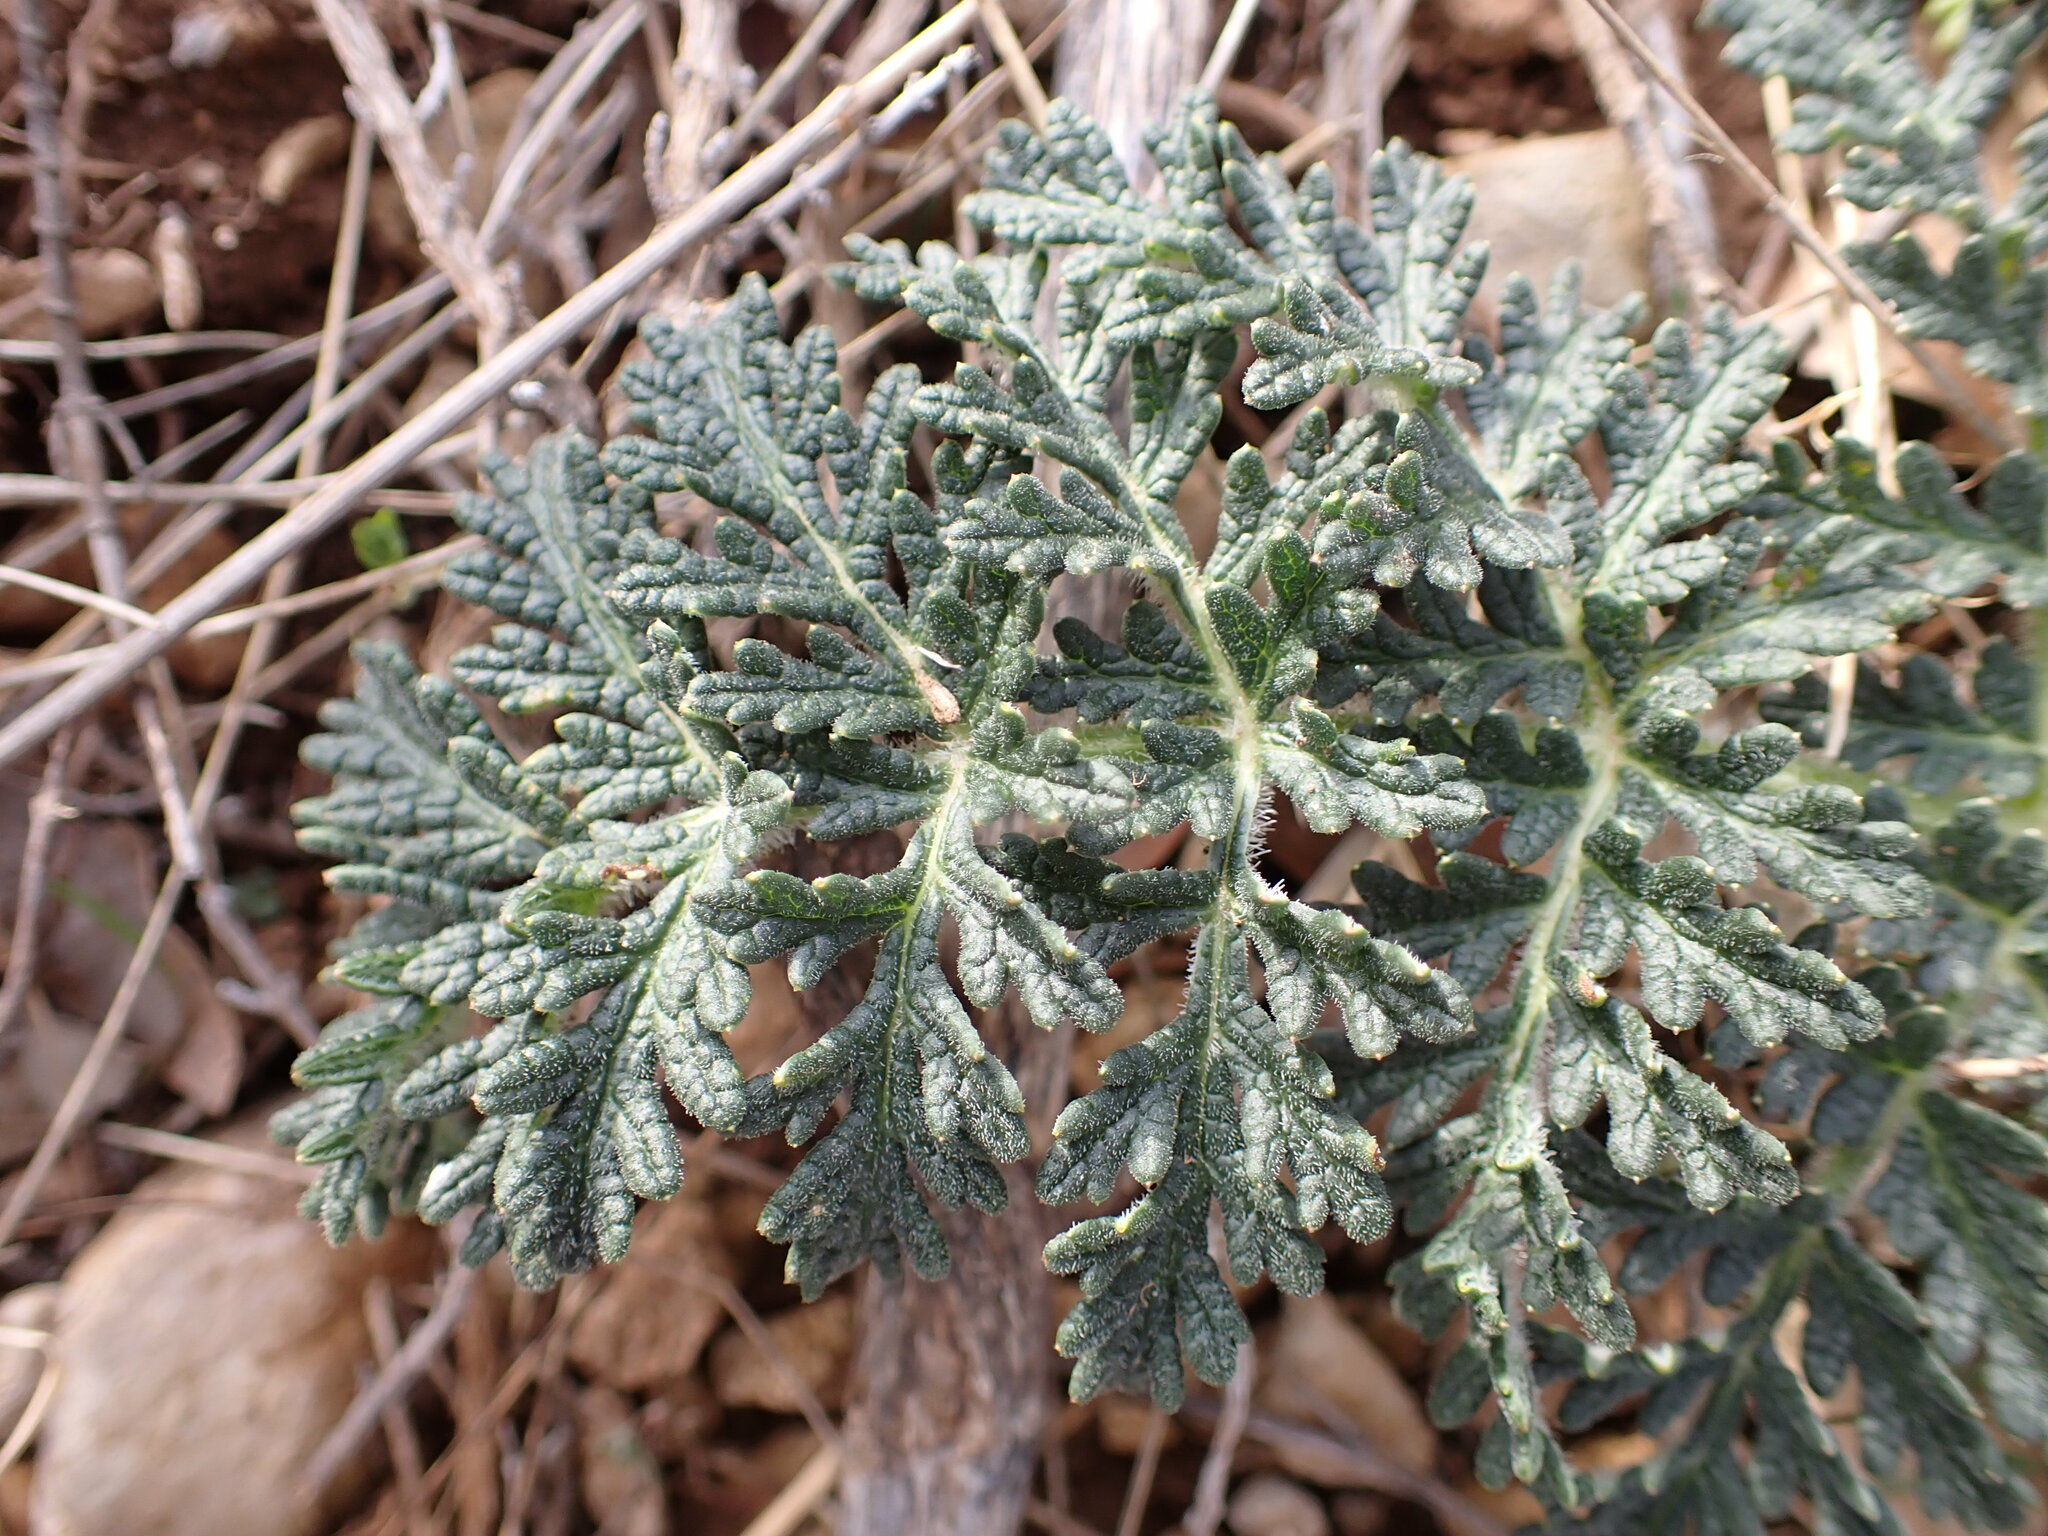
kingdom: Plantae
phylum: Tracheophyta
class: Magnoliopsida
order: Apiales
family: Apiaceae
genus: Thapsia
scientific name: Thapsia villosa
